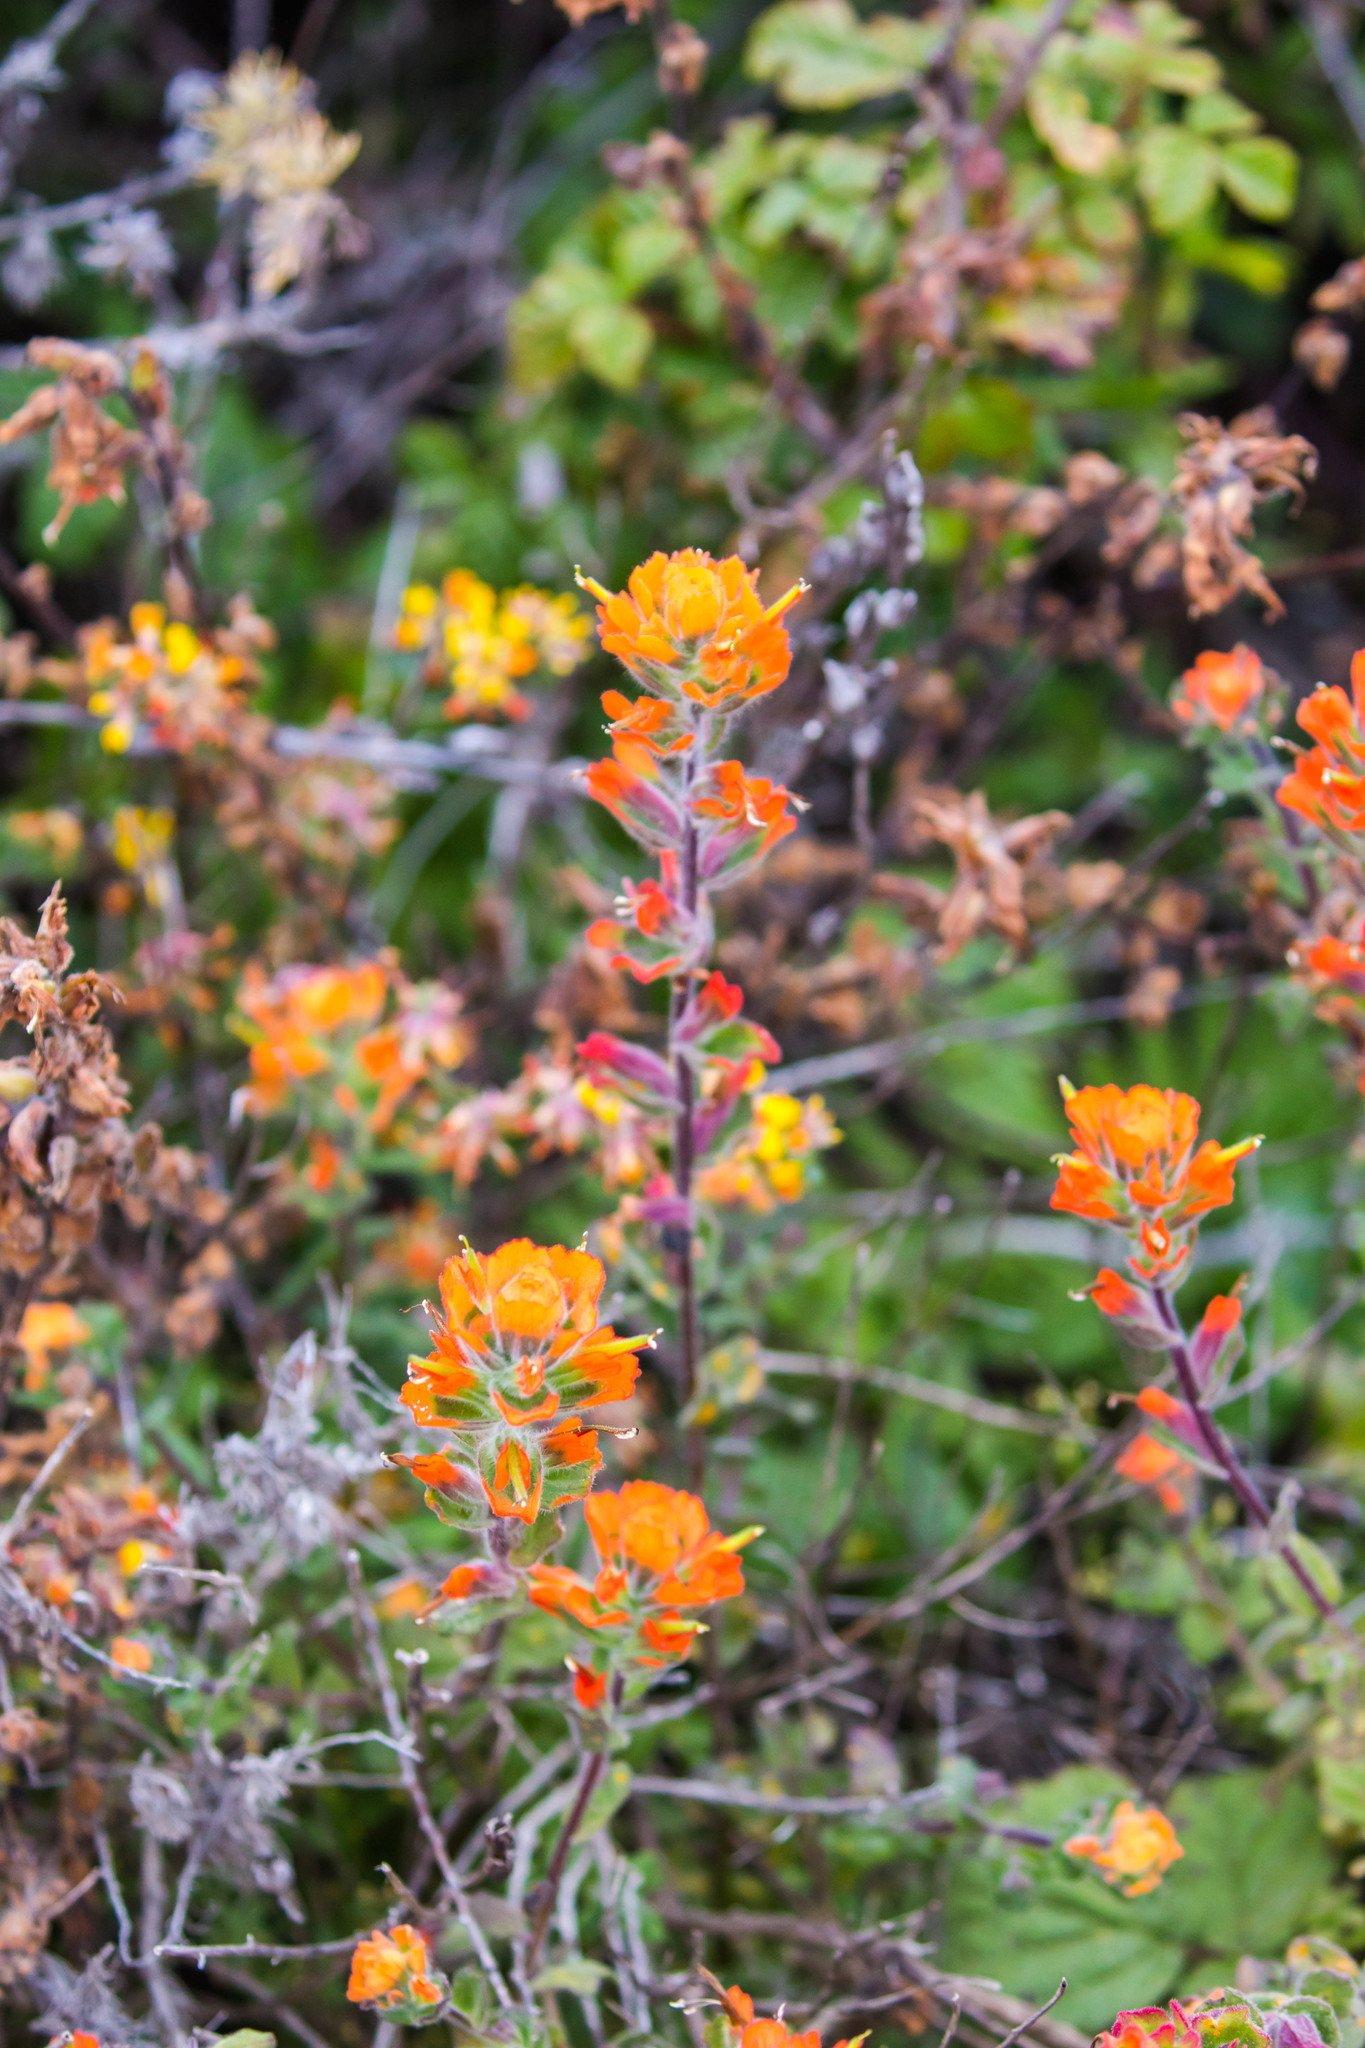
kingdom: Plantae
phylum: Tracheophyta
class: Magnoliopsida
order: Lamiales
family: Orobanchaceae
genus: Castilleja
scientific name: Castilleja latifolia
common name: Monterey indian paintbrush
